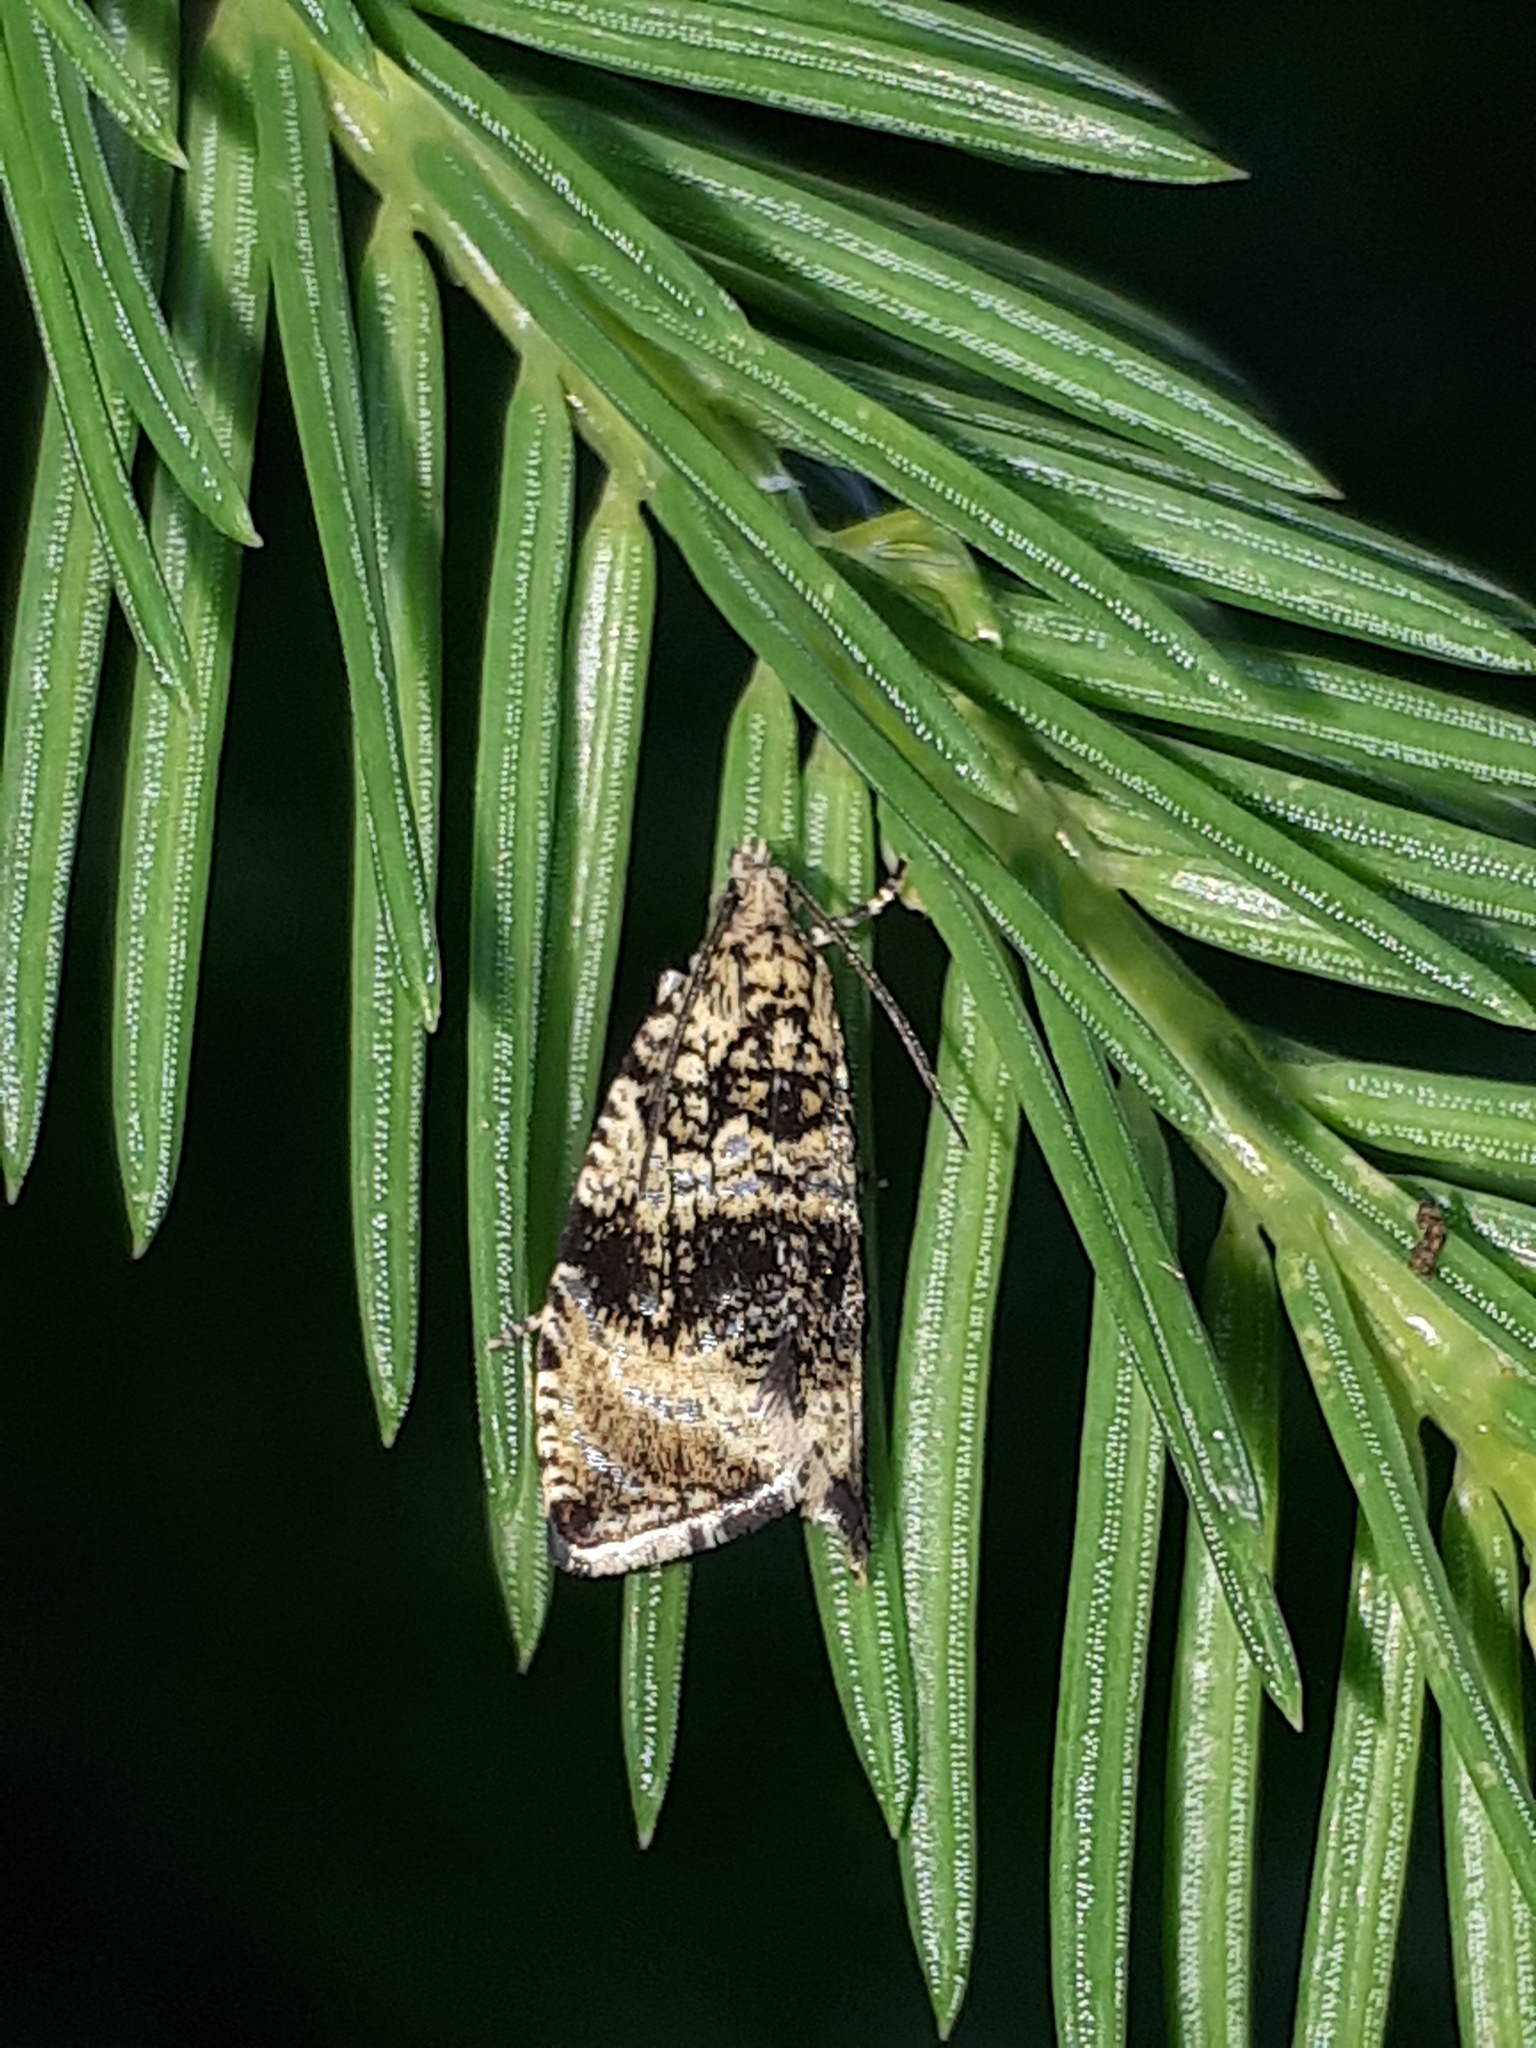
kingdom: Animalia
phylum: Arthropoda
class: Insecta
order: Lepidoptera
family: Tortricidae
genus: Syricoris
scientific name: Syricoris lacunana
